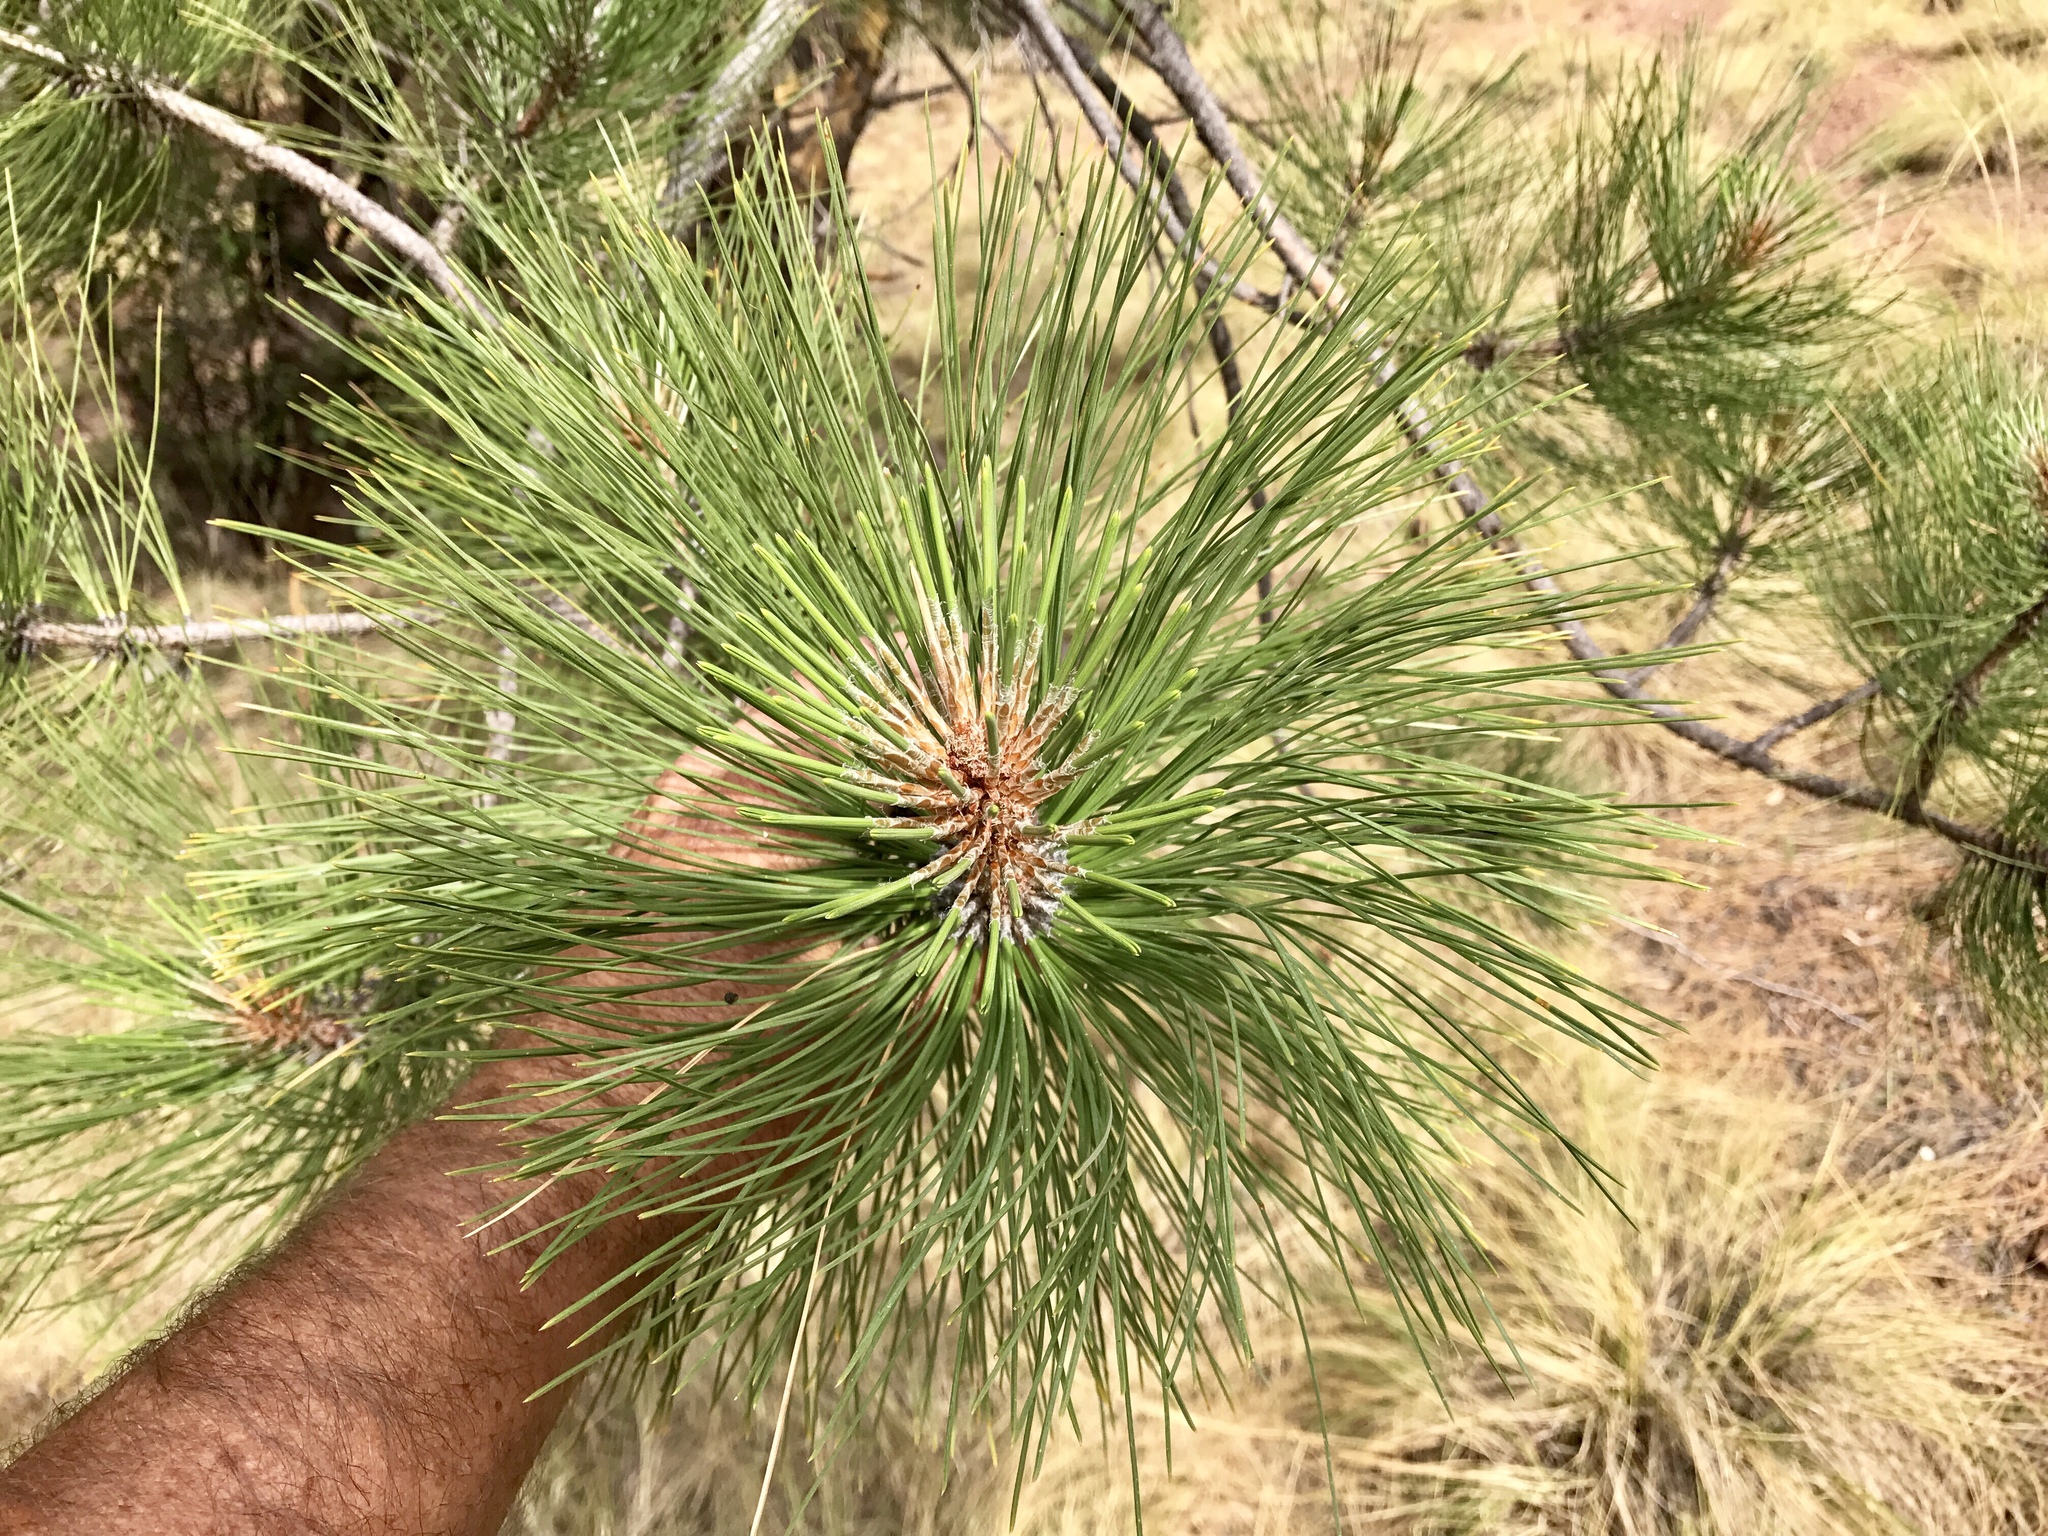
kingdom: Plantae
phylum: Tracheophyta
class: Pinopsida
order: Pinales
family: Pinaceae
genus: Pinus
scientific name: Pinus engelmannii
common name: Apache pine
